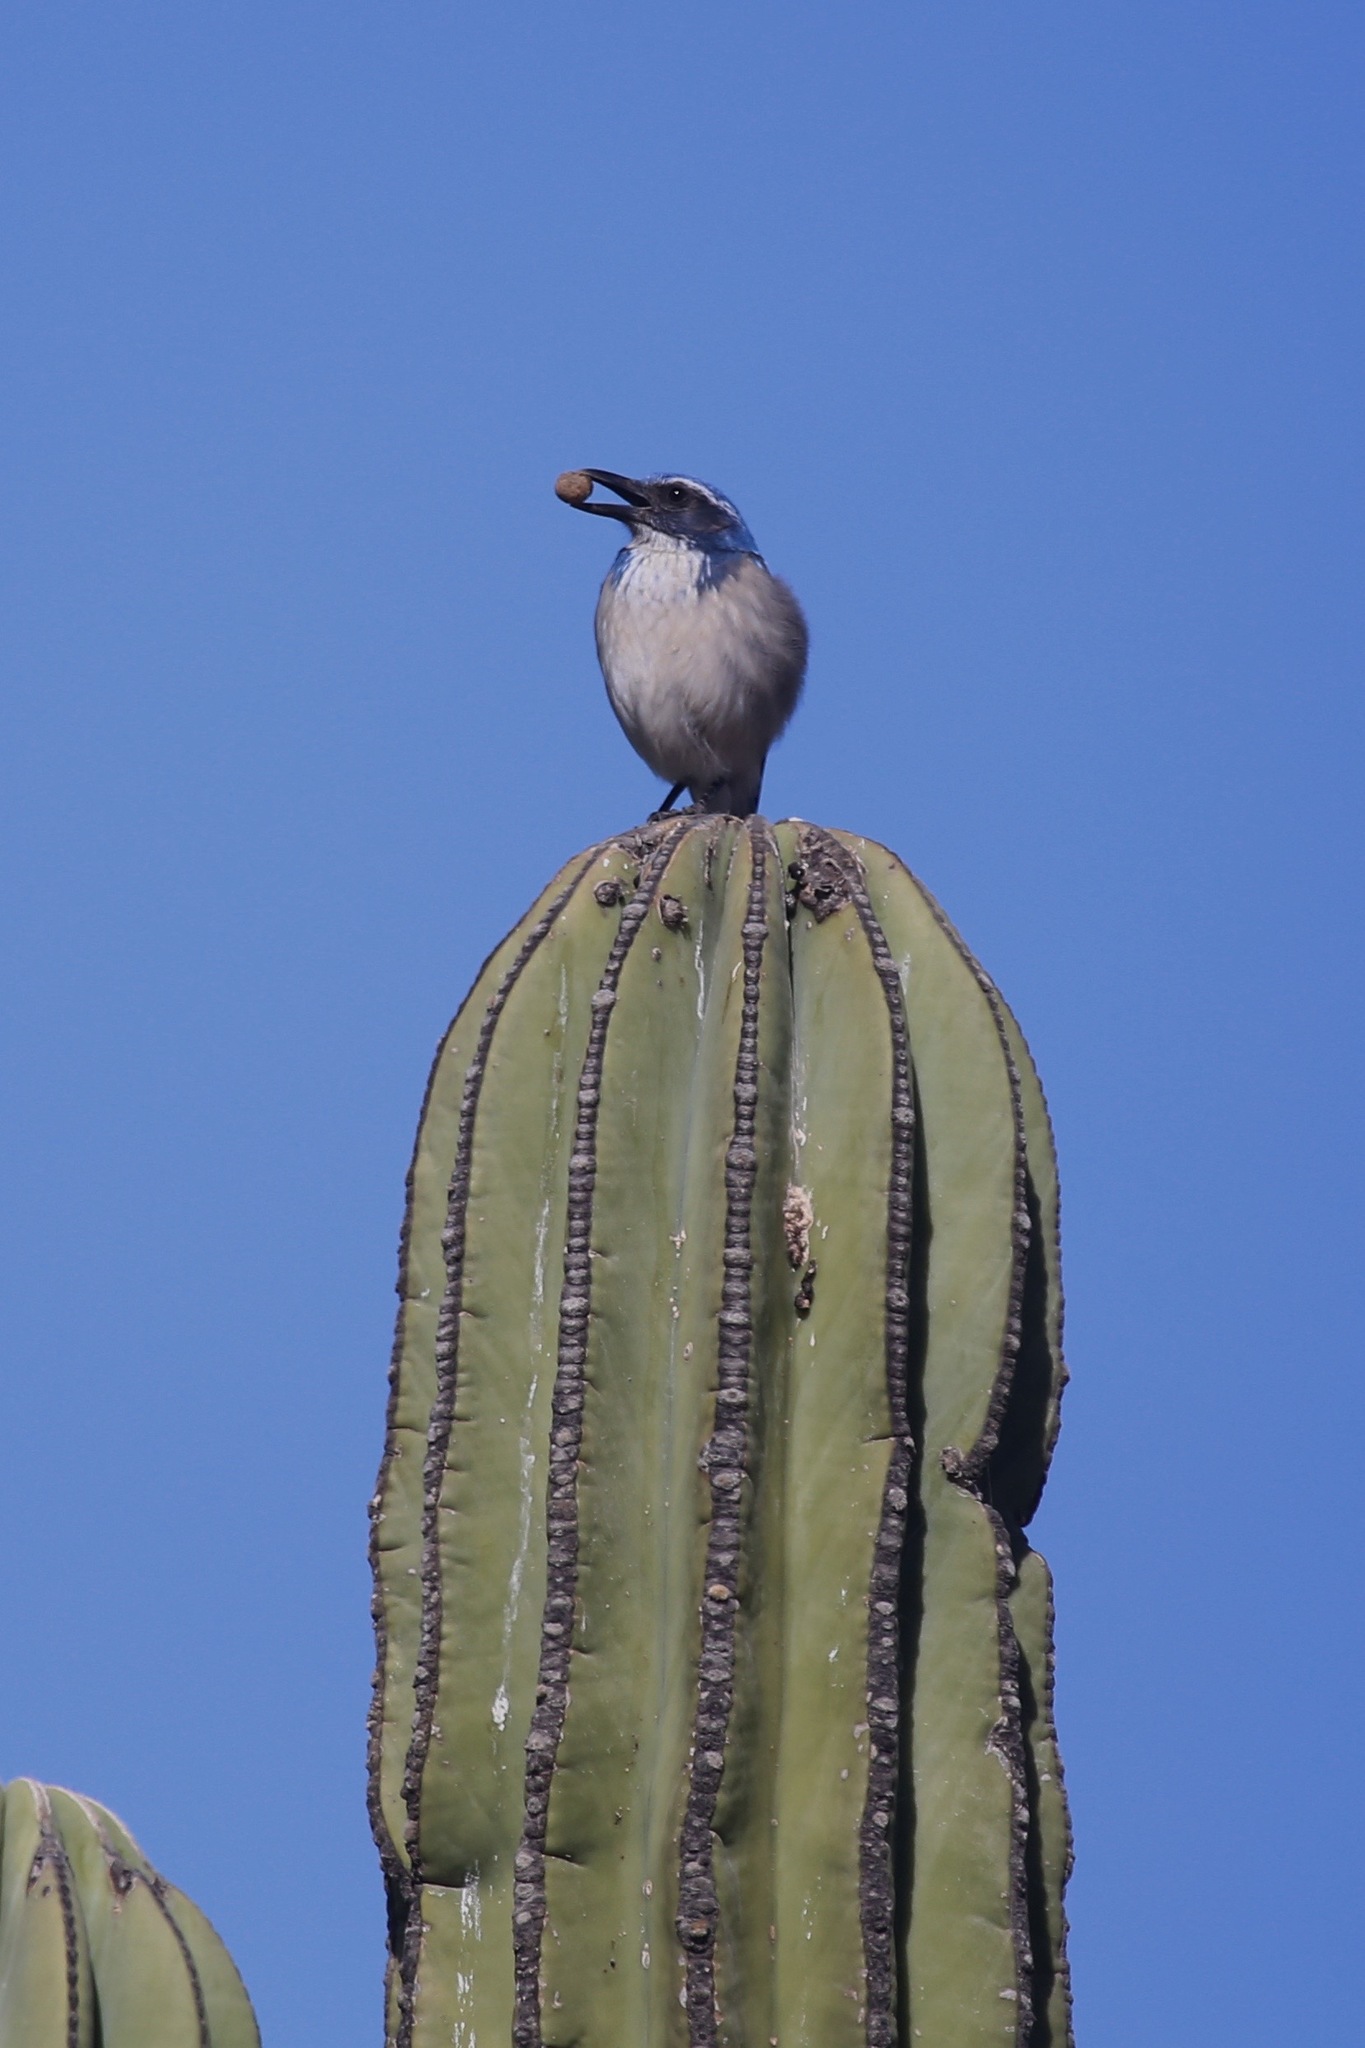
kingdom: Animalia
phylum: Chordata
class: Aves
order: Passeriformes
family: Corvidae
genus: Aphelocoma
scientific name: Aphelocoma californica
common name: California scrub-jay
